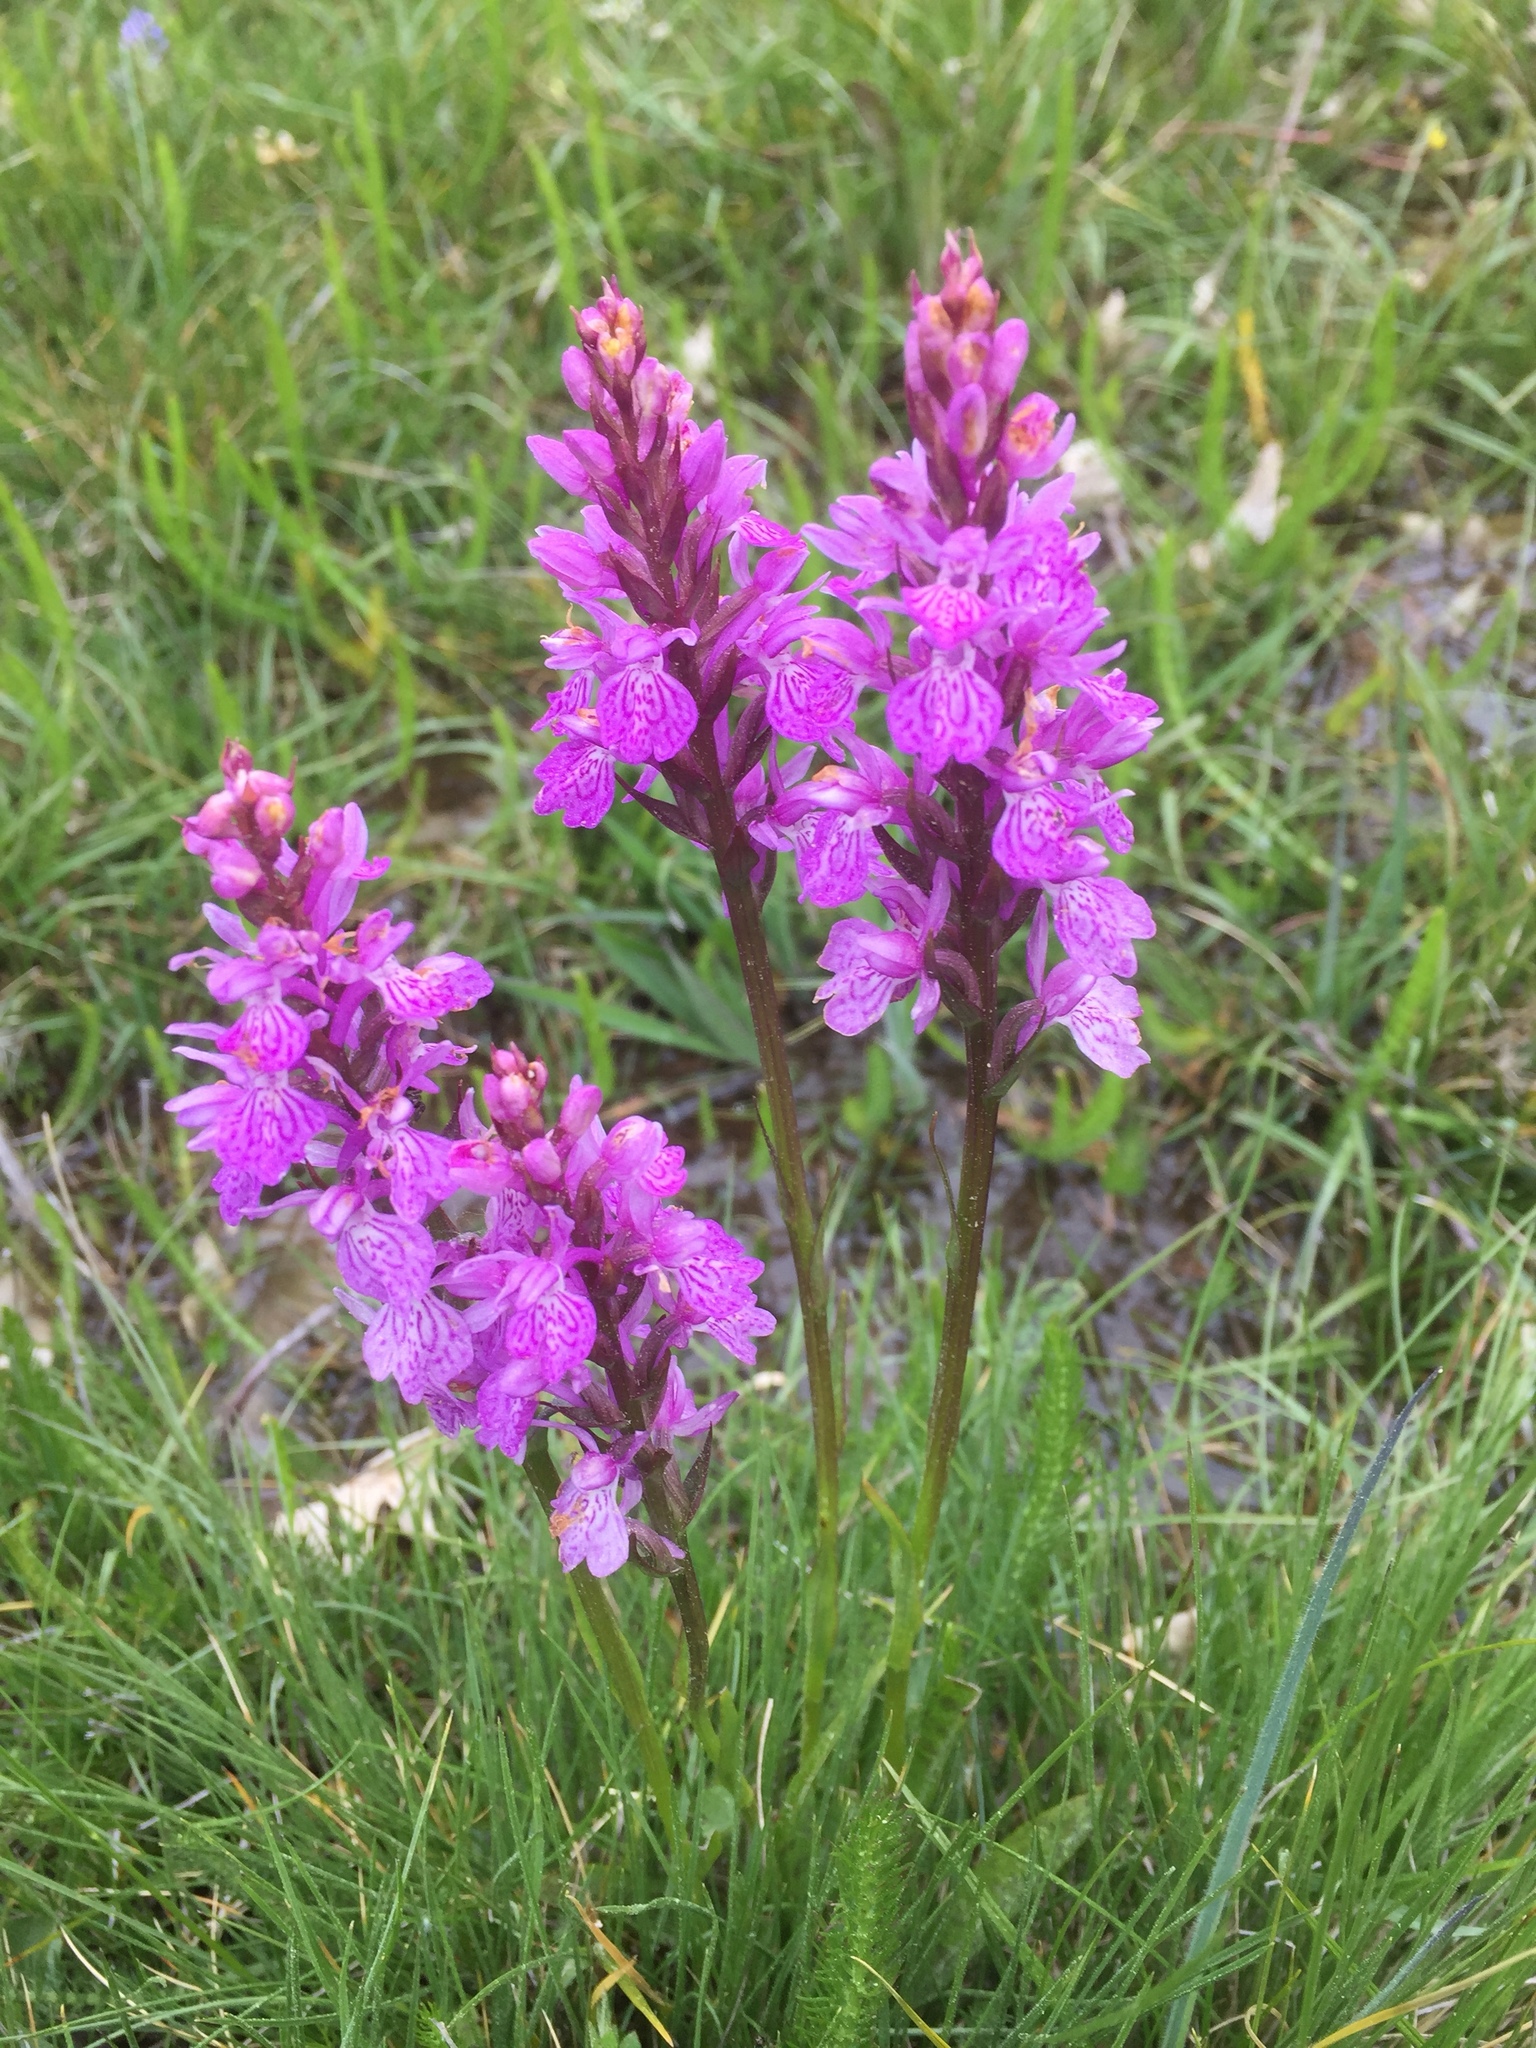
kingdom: Plantae
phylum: Tracheophyta
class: Liliopsida
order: Asparagales
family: Orchidaceae
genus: Dactylorhiza
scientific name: Dactylorhiza maculata
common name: Heath spotted-orchid
